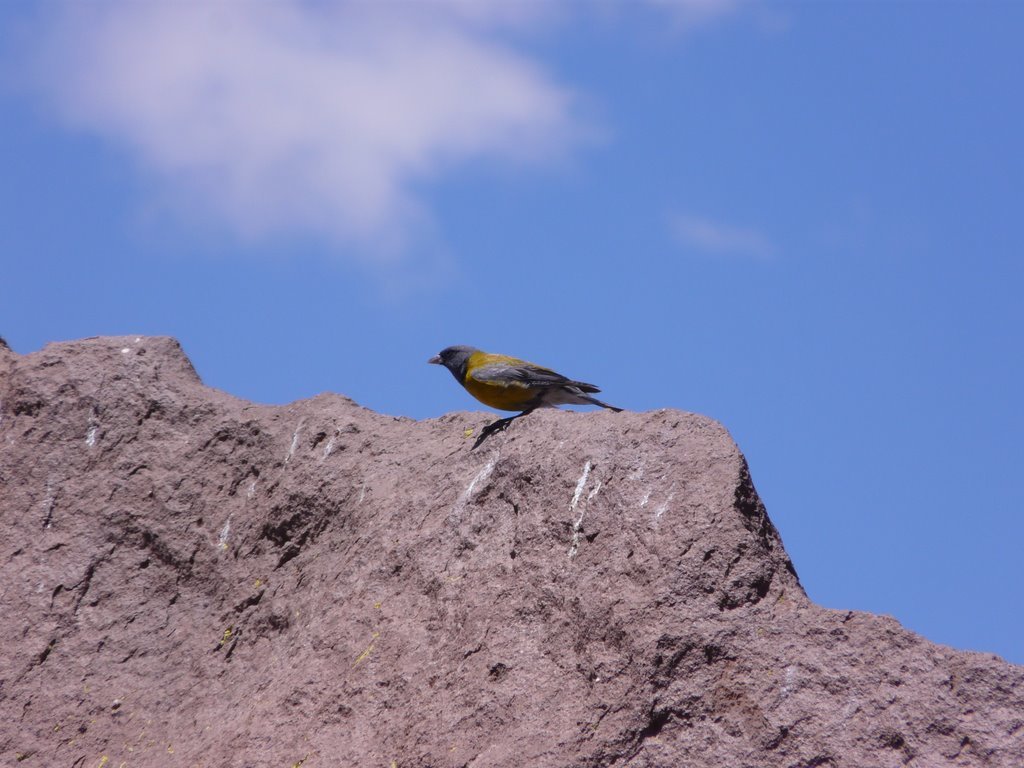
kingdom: Animalia
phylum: Chordata
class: Aves
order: Passeriformes
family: Thraupidae
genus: Phrygilus
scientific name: Phrygilus gayi
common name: Grey-hooded sierra finch
